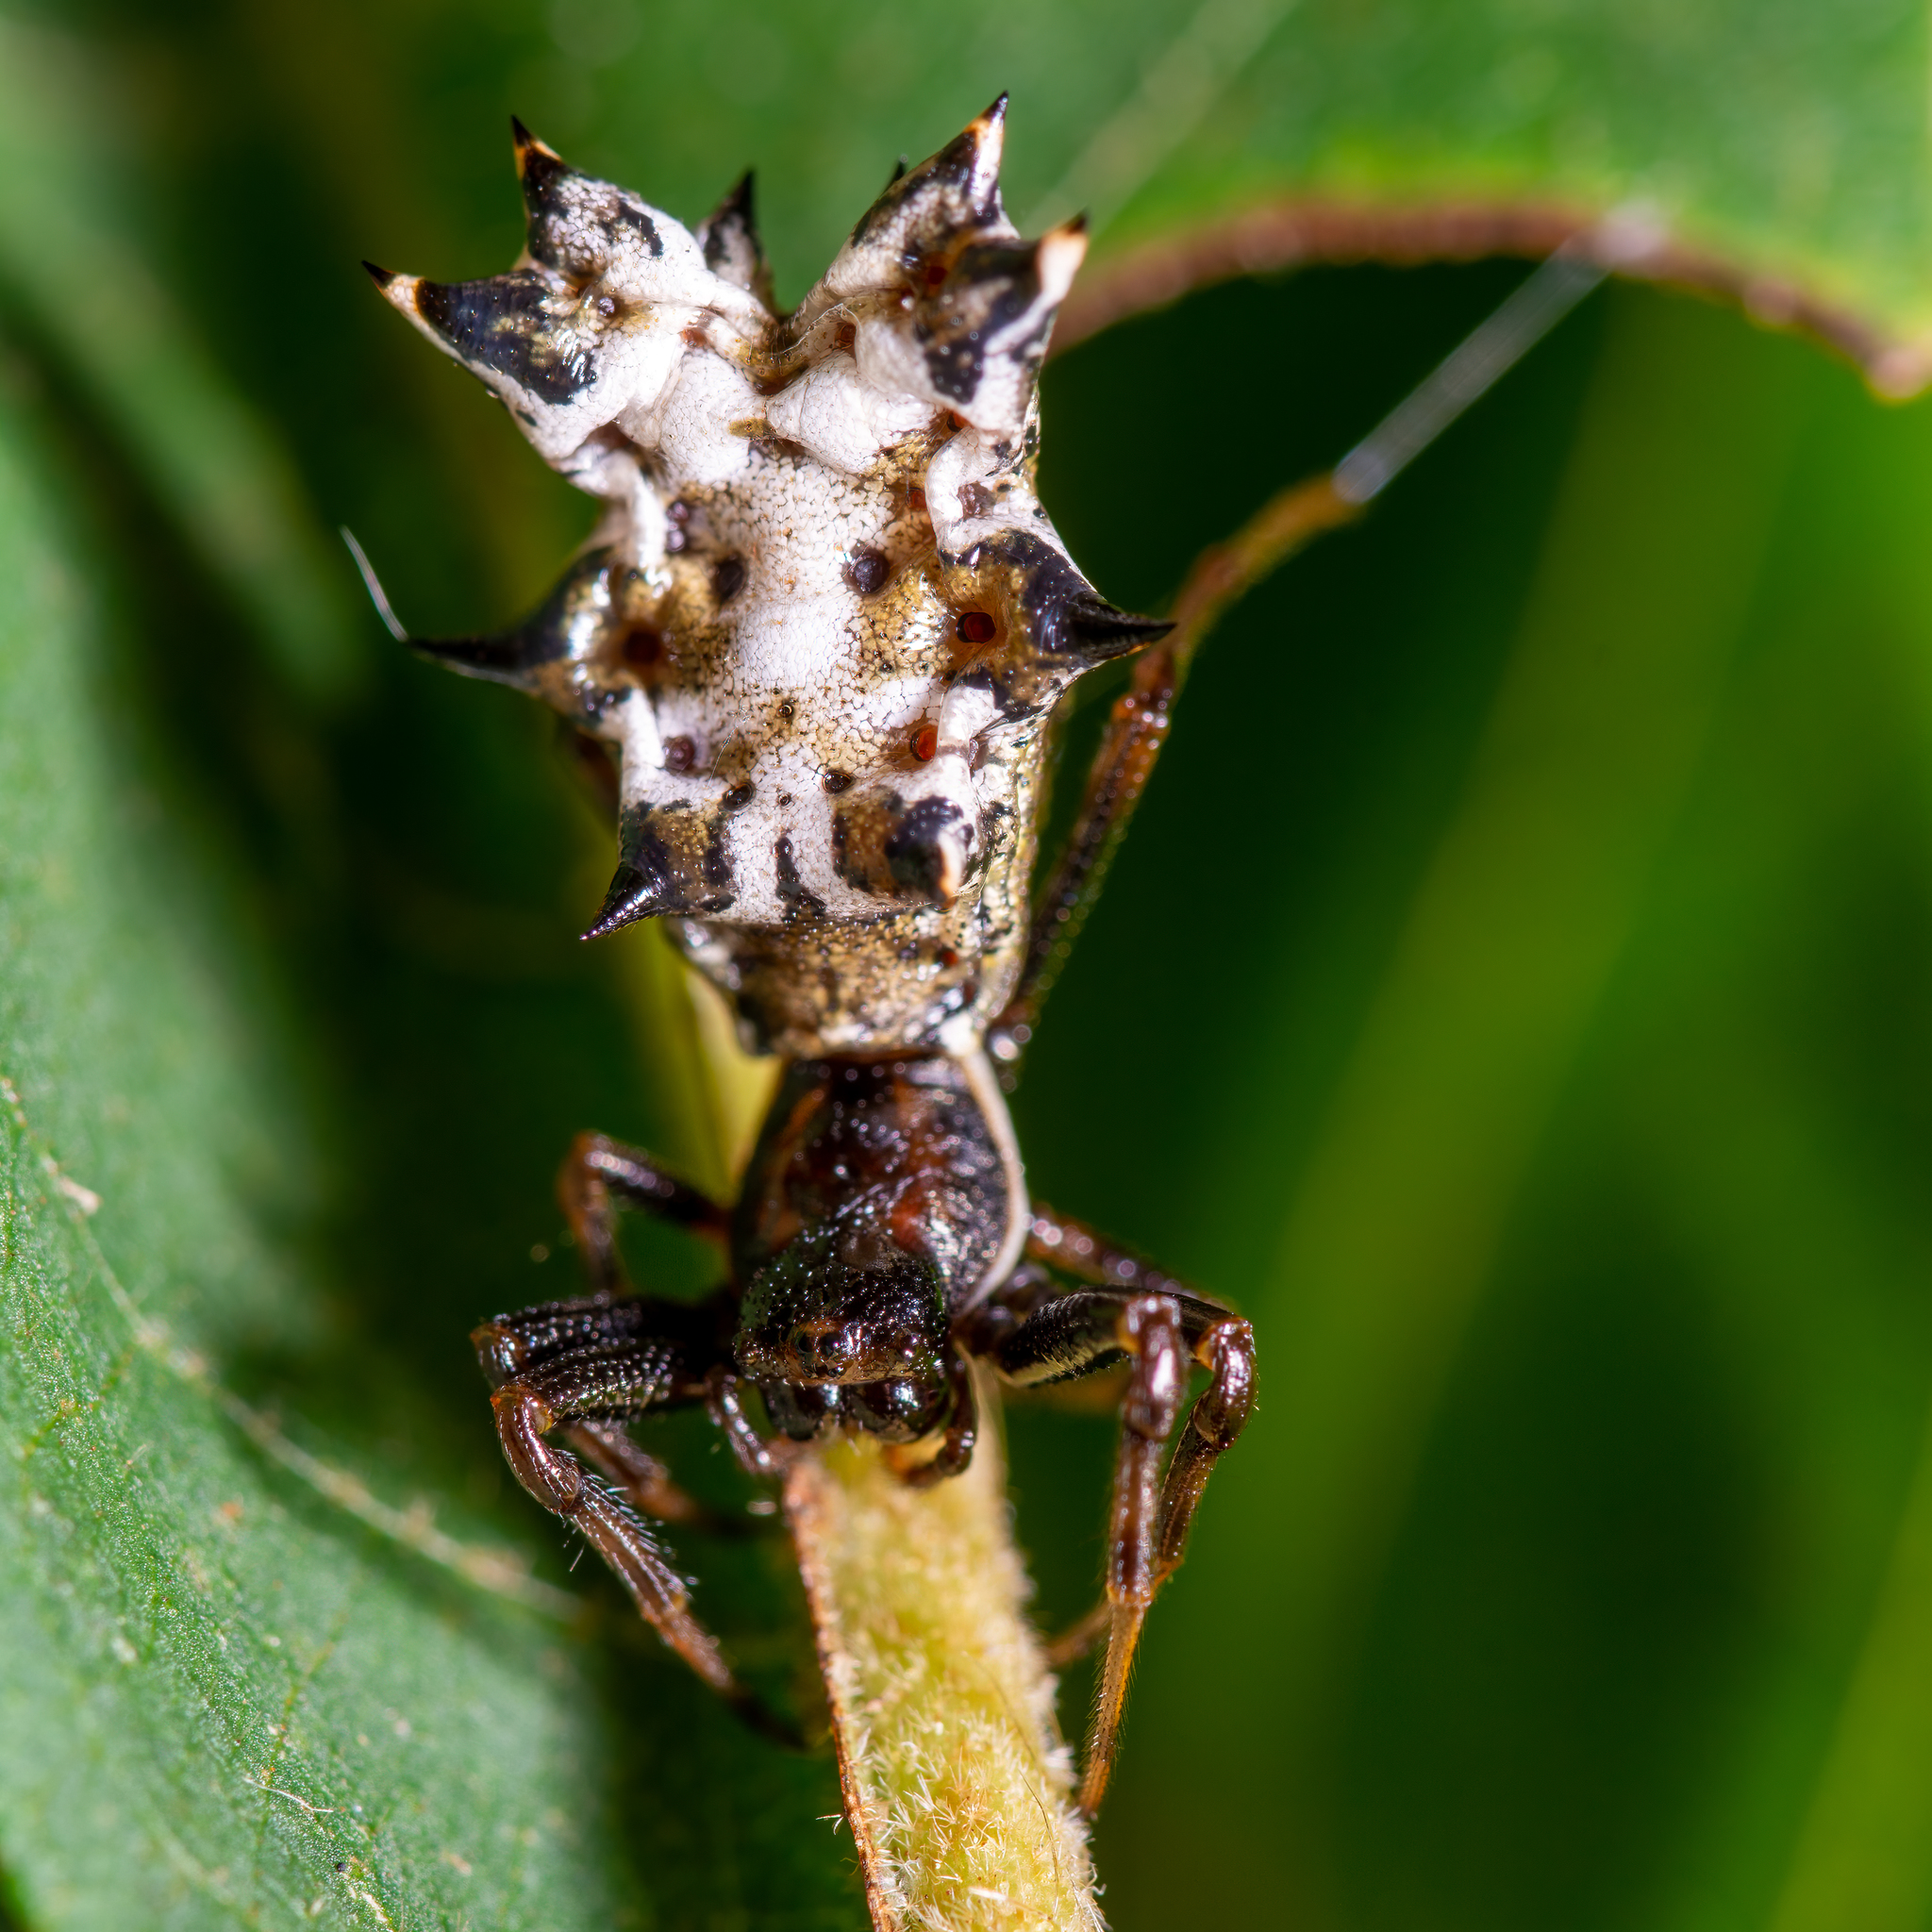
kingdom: Animalia
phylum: Arthropoda
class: Arachnida
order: Araneae
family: Araneidae
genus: Micrathena
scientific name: Micrathena gracilis
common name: Orb weavers
